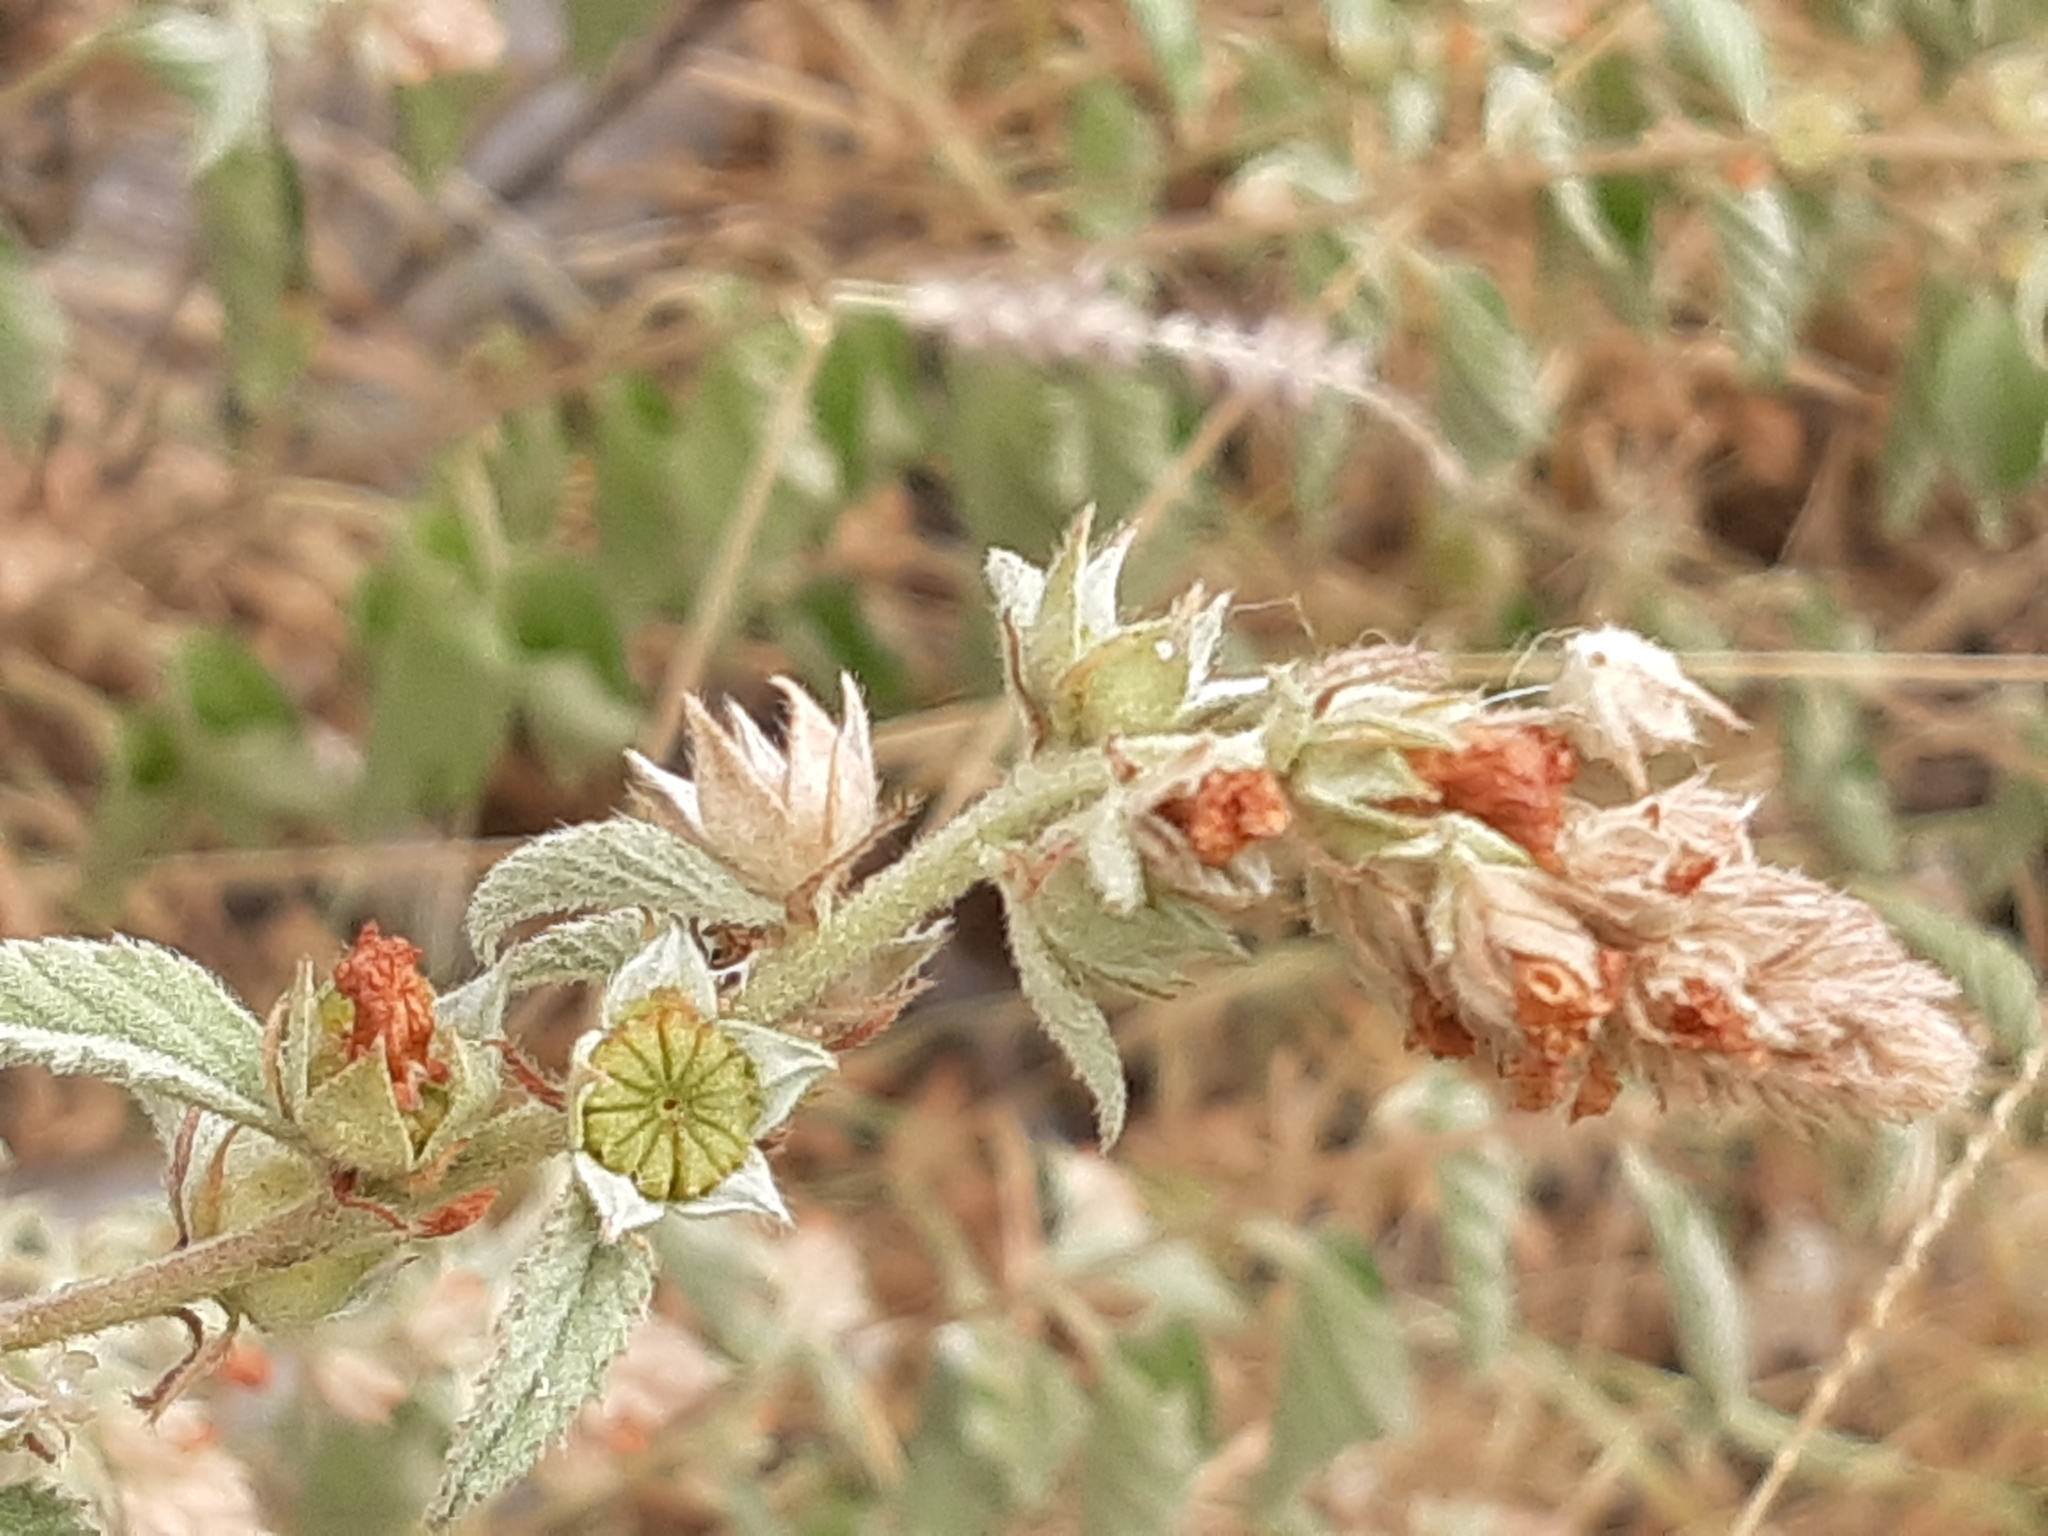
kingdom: Plantae
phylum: Tracheophyta
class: Magnoliopsida
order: Malvales
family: Malvaceae
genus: Malvastrum
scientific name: Malvastrum americanum
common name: Spiked malvastrum
